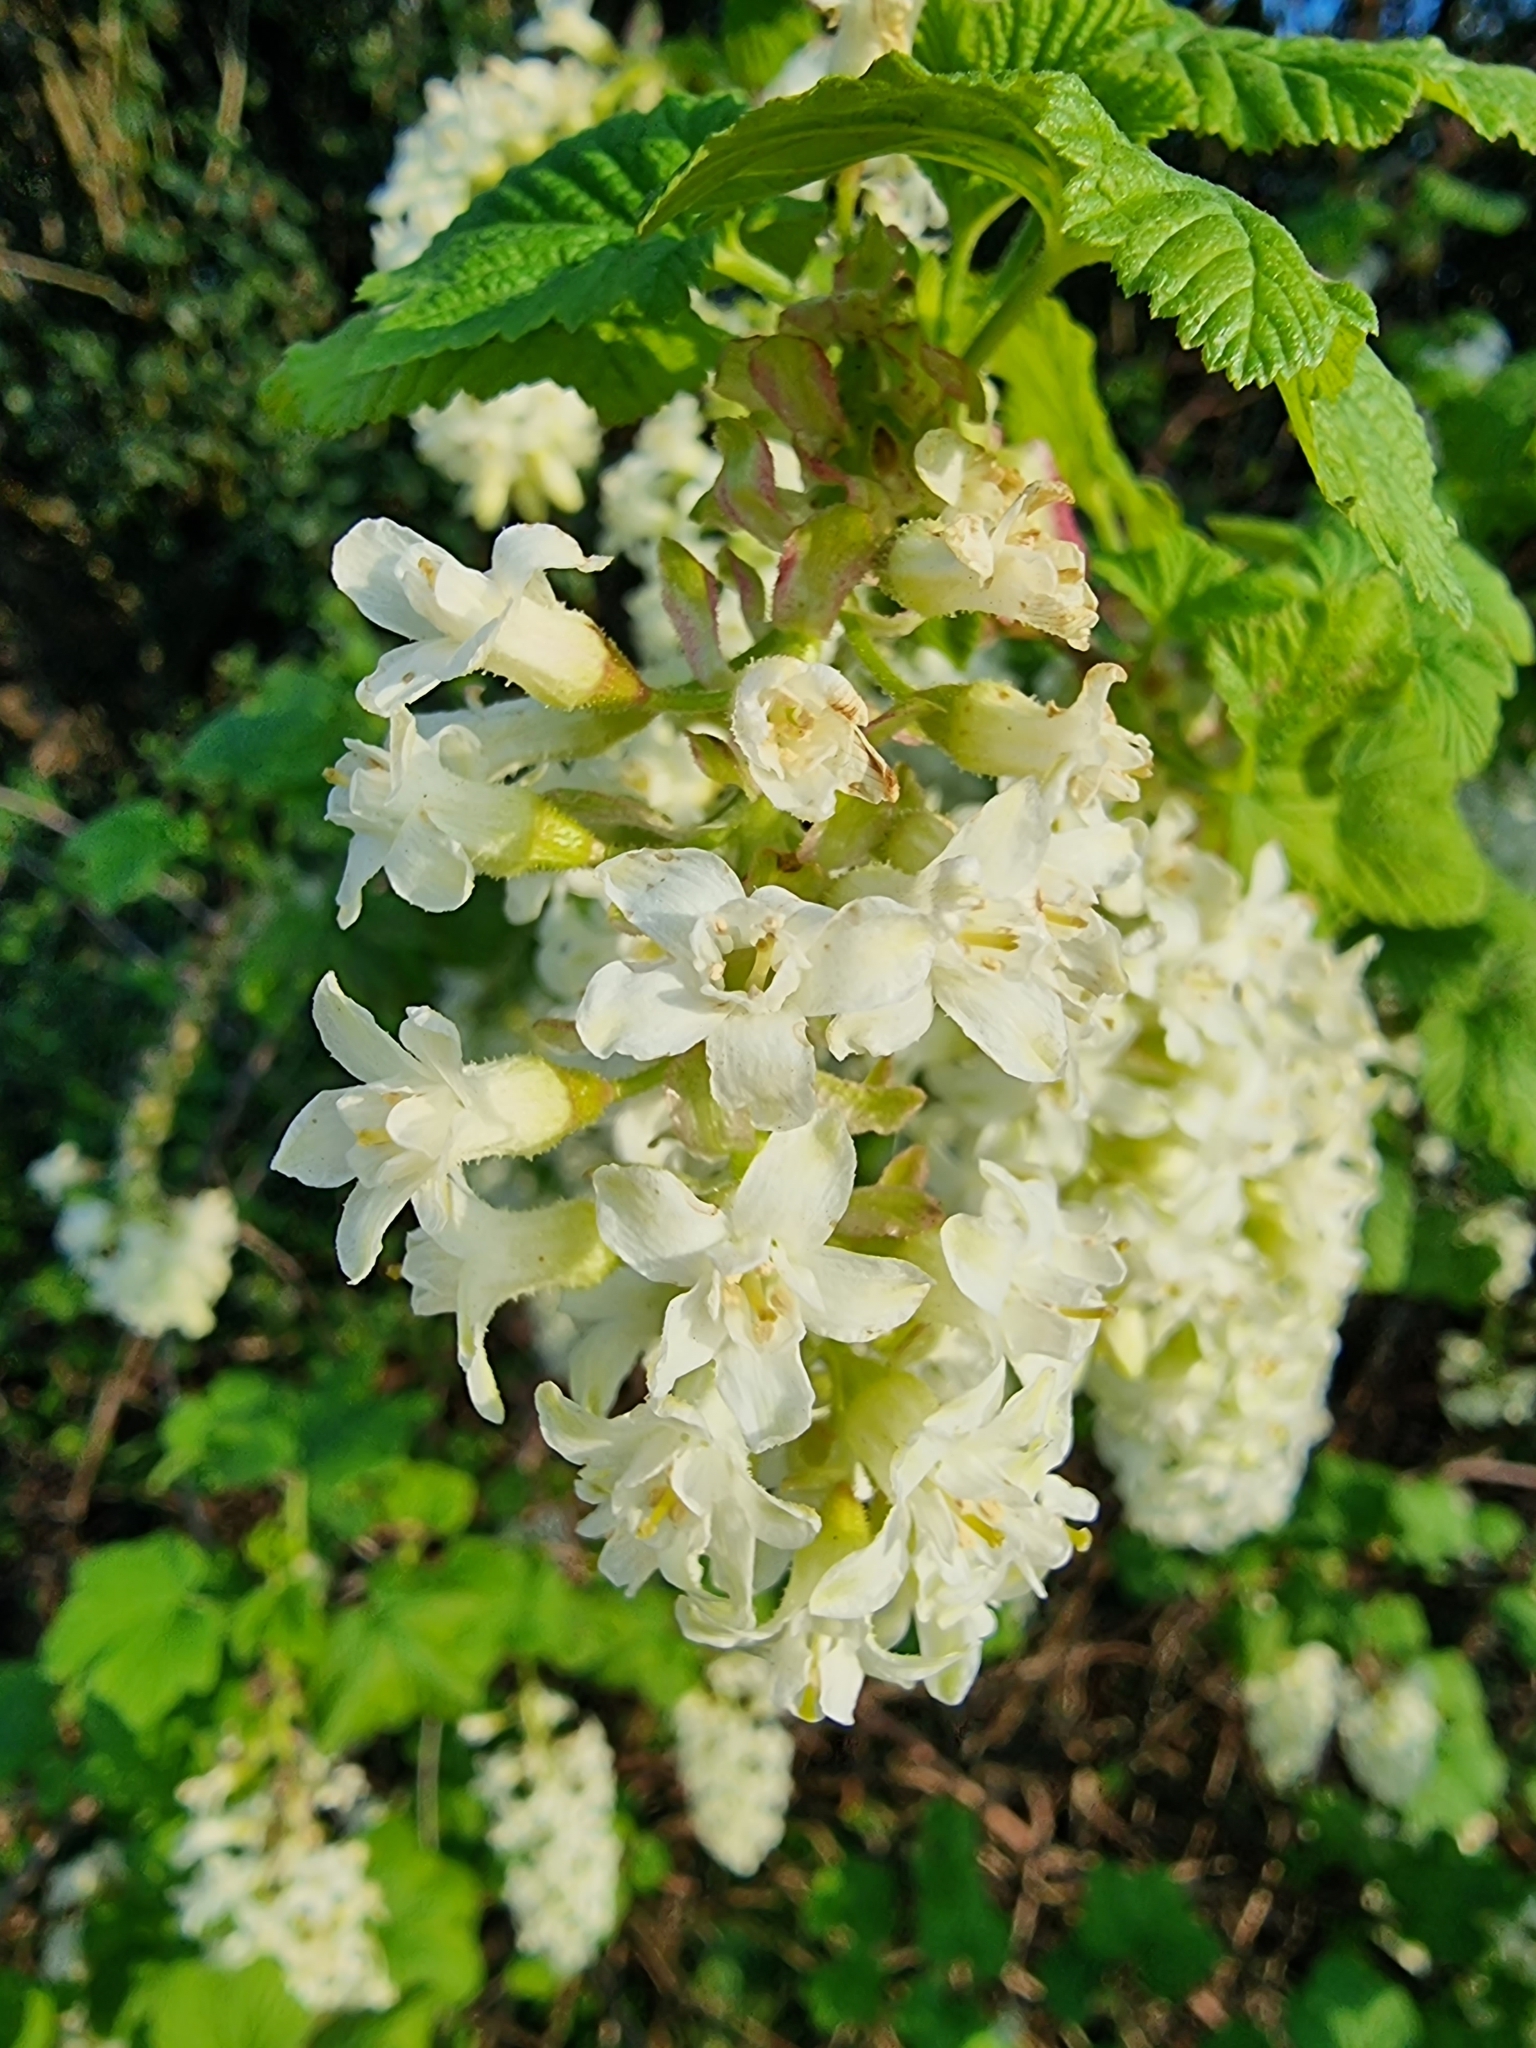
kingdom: Plantae
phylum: Tracheophyta
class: Magnoliopsida
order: Saxifragales
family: Grossulariaceae
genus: Ribes
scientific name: Ribes sanguineum
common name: Flowering currant
